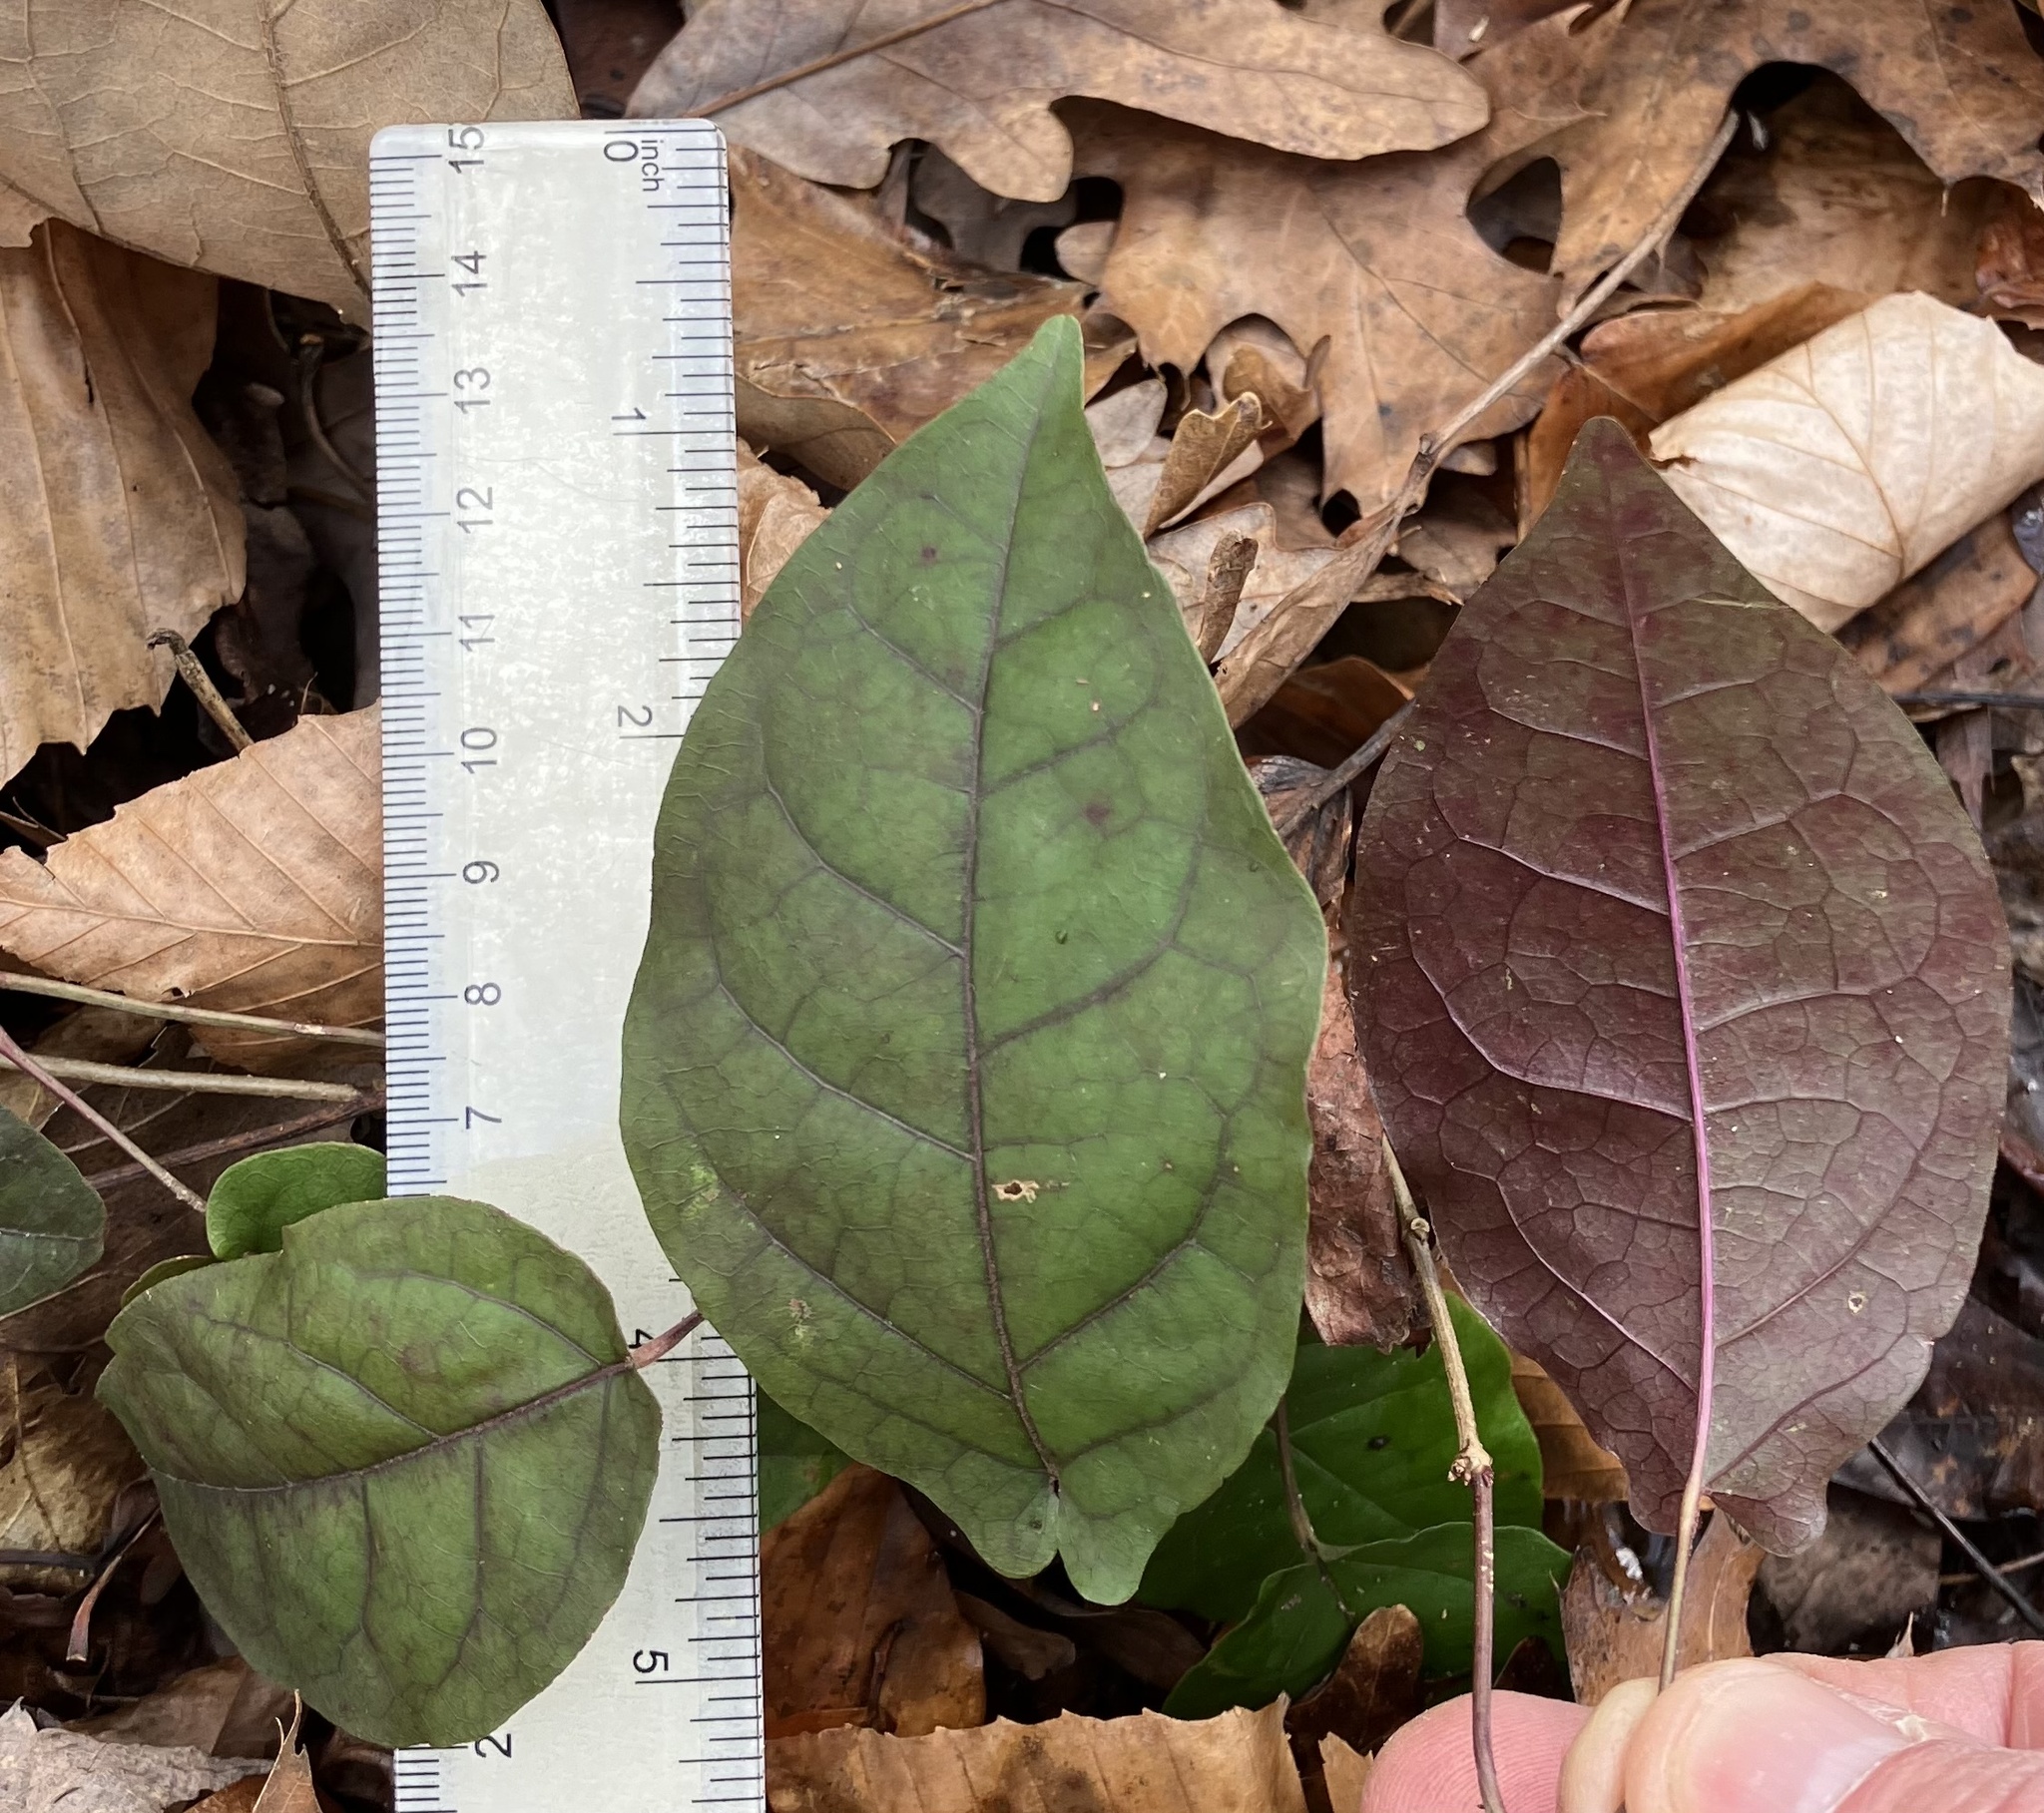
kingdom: Plantae
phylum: Tracheophyta
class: Magnoliopsida
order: Lamiales
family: Bignoniaceae
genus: Bignonia
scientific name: Bignonia capreolata
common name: Crossvine
